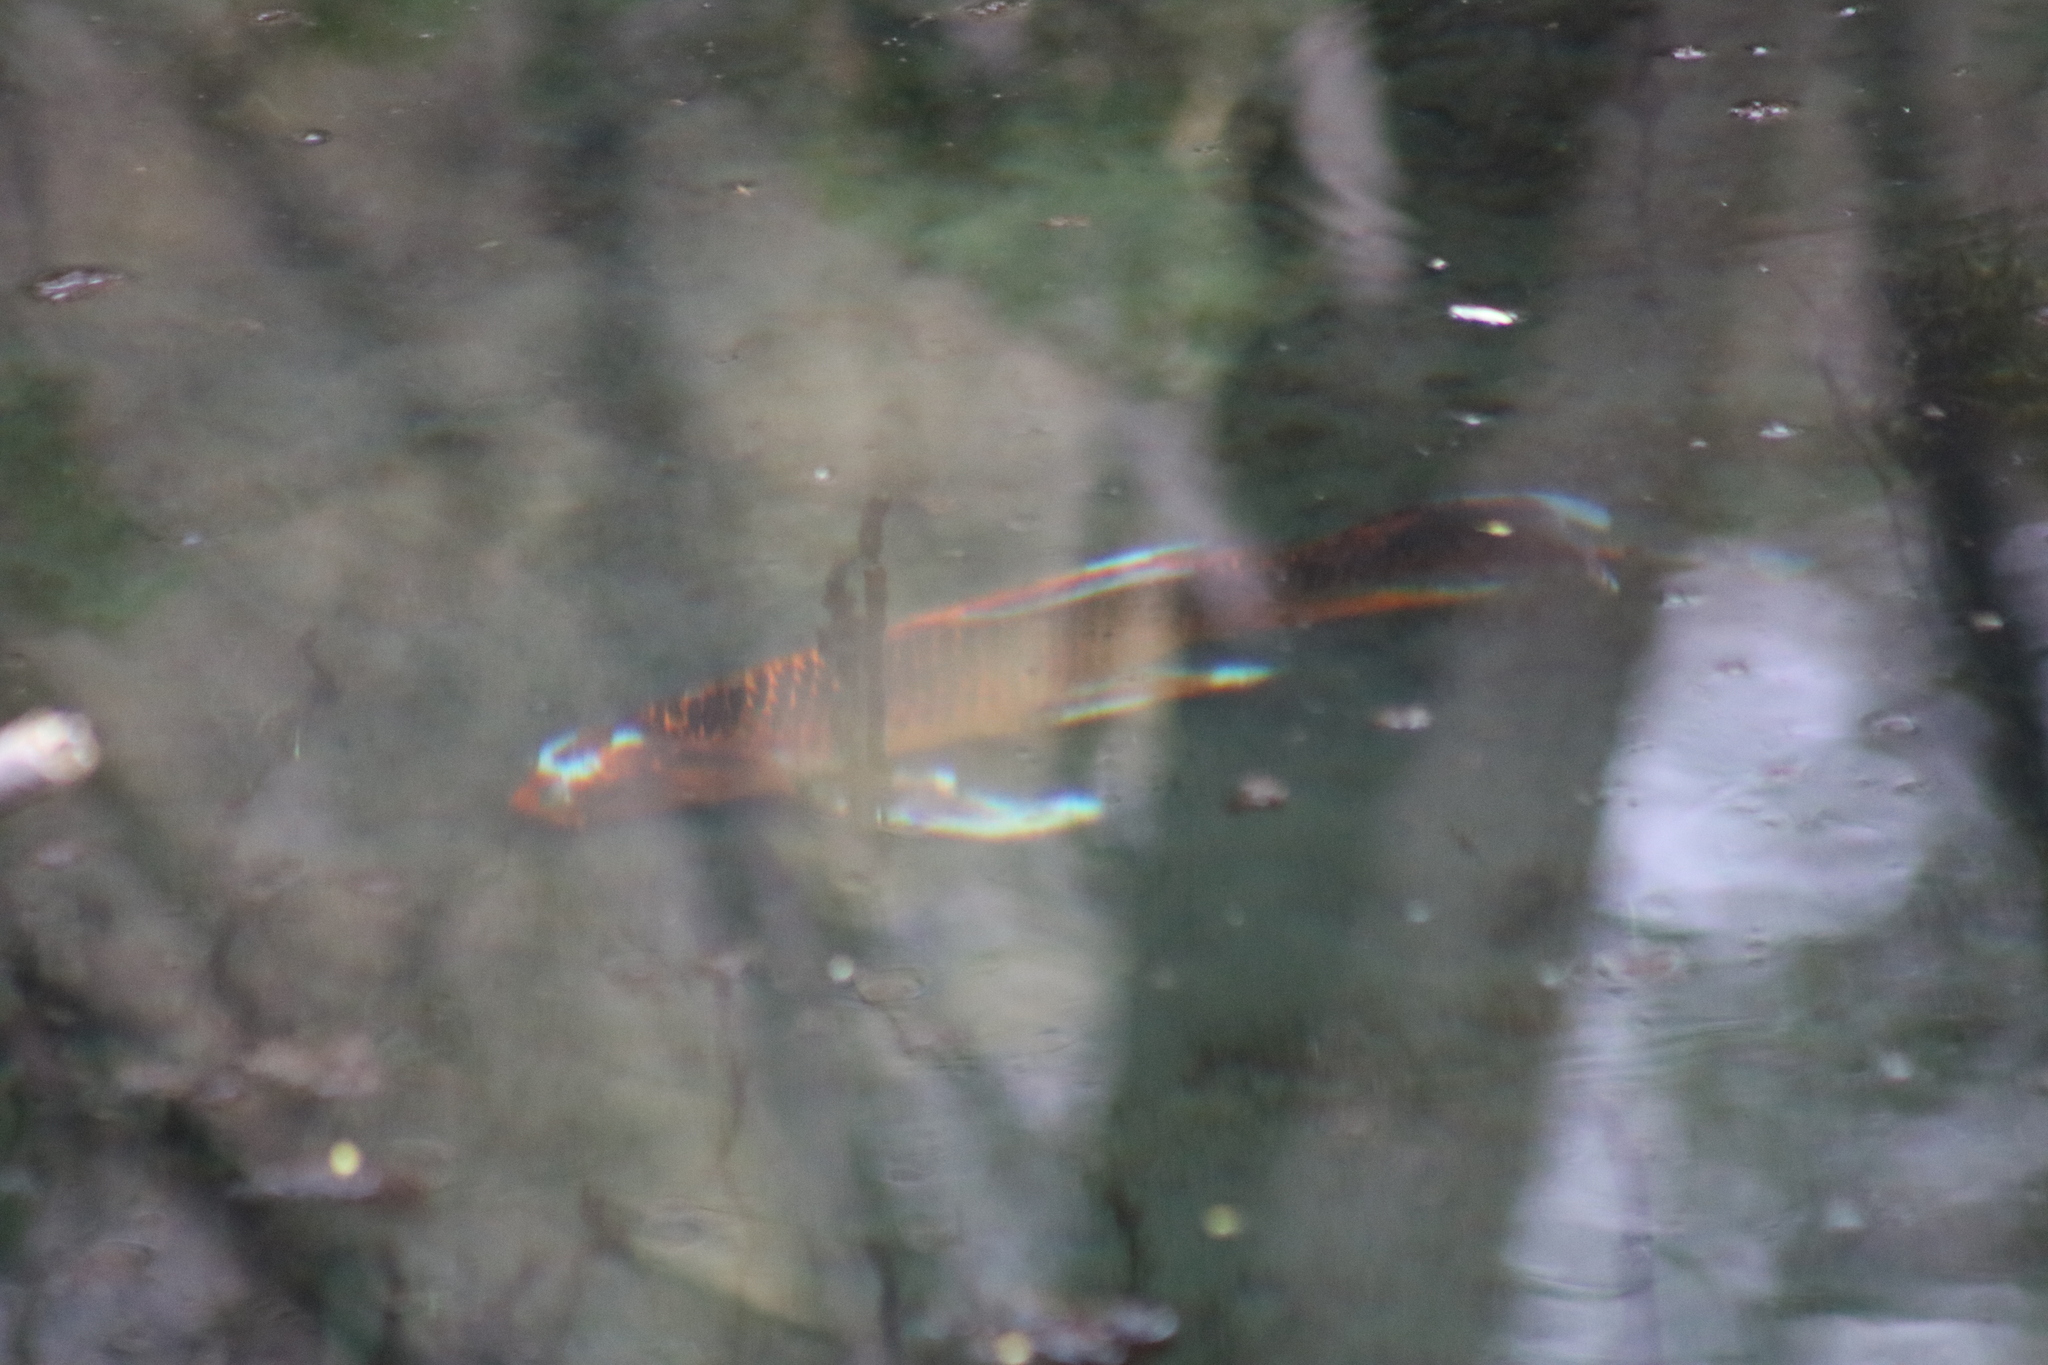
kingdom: Animalia
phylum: Chordata
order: Cypriniformes
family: Cyprinidae
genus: Cyprinus
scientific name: Cyprinus rubrofuscus
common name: Koi
